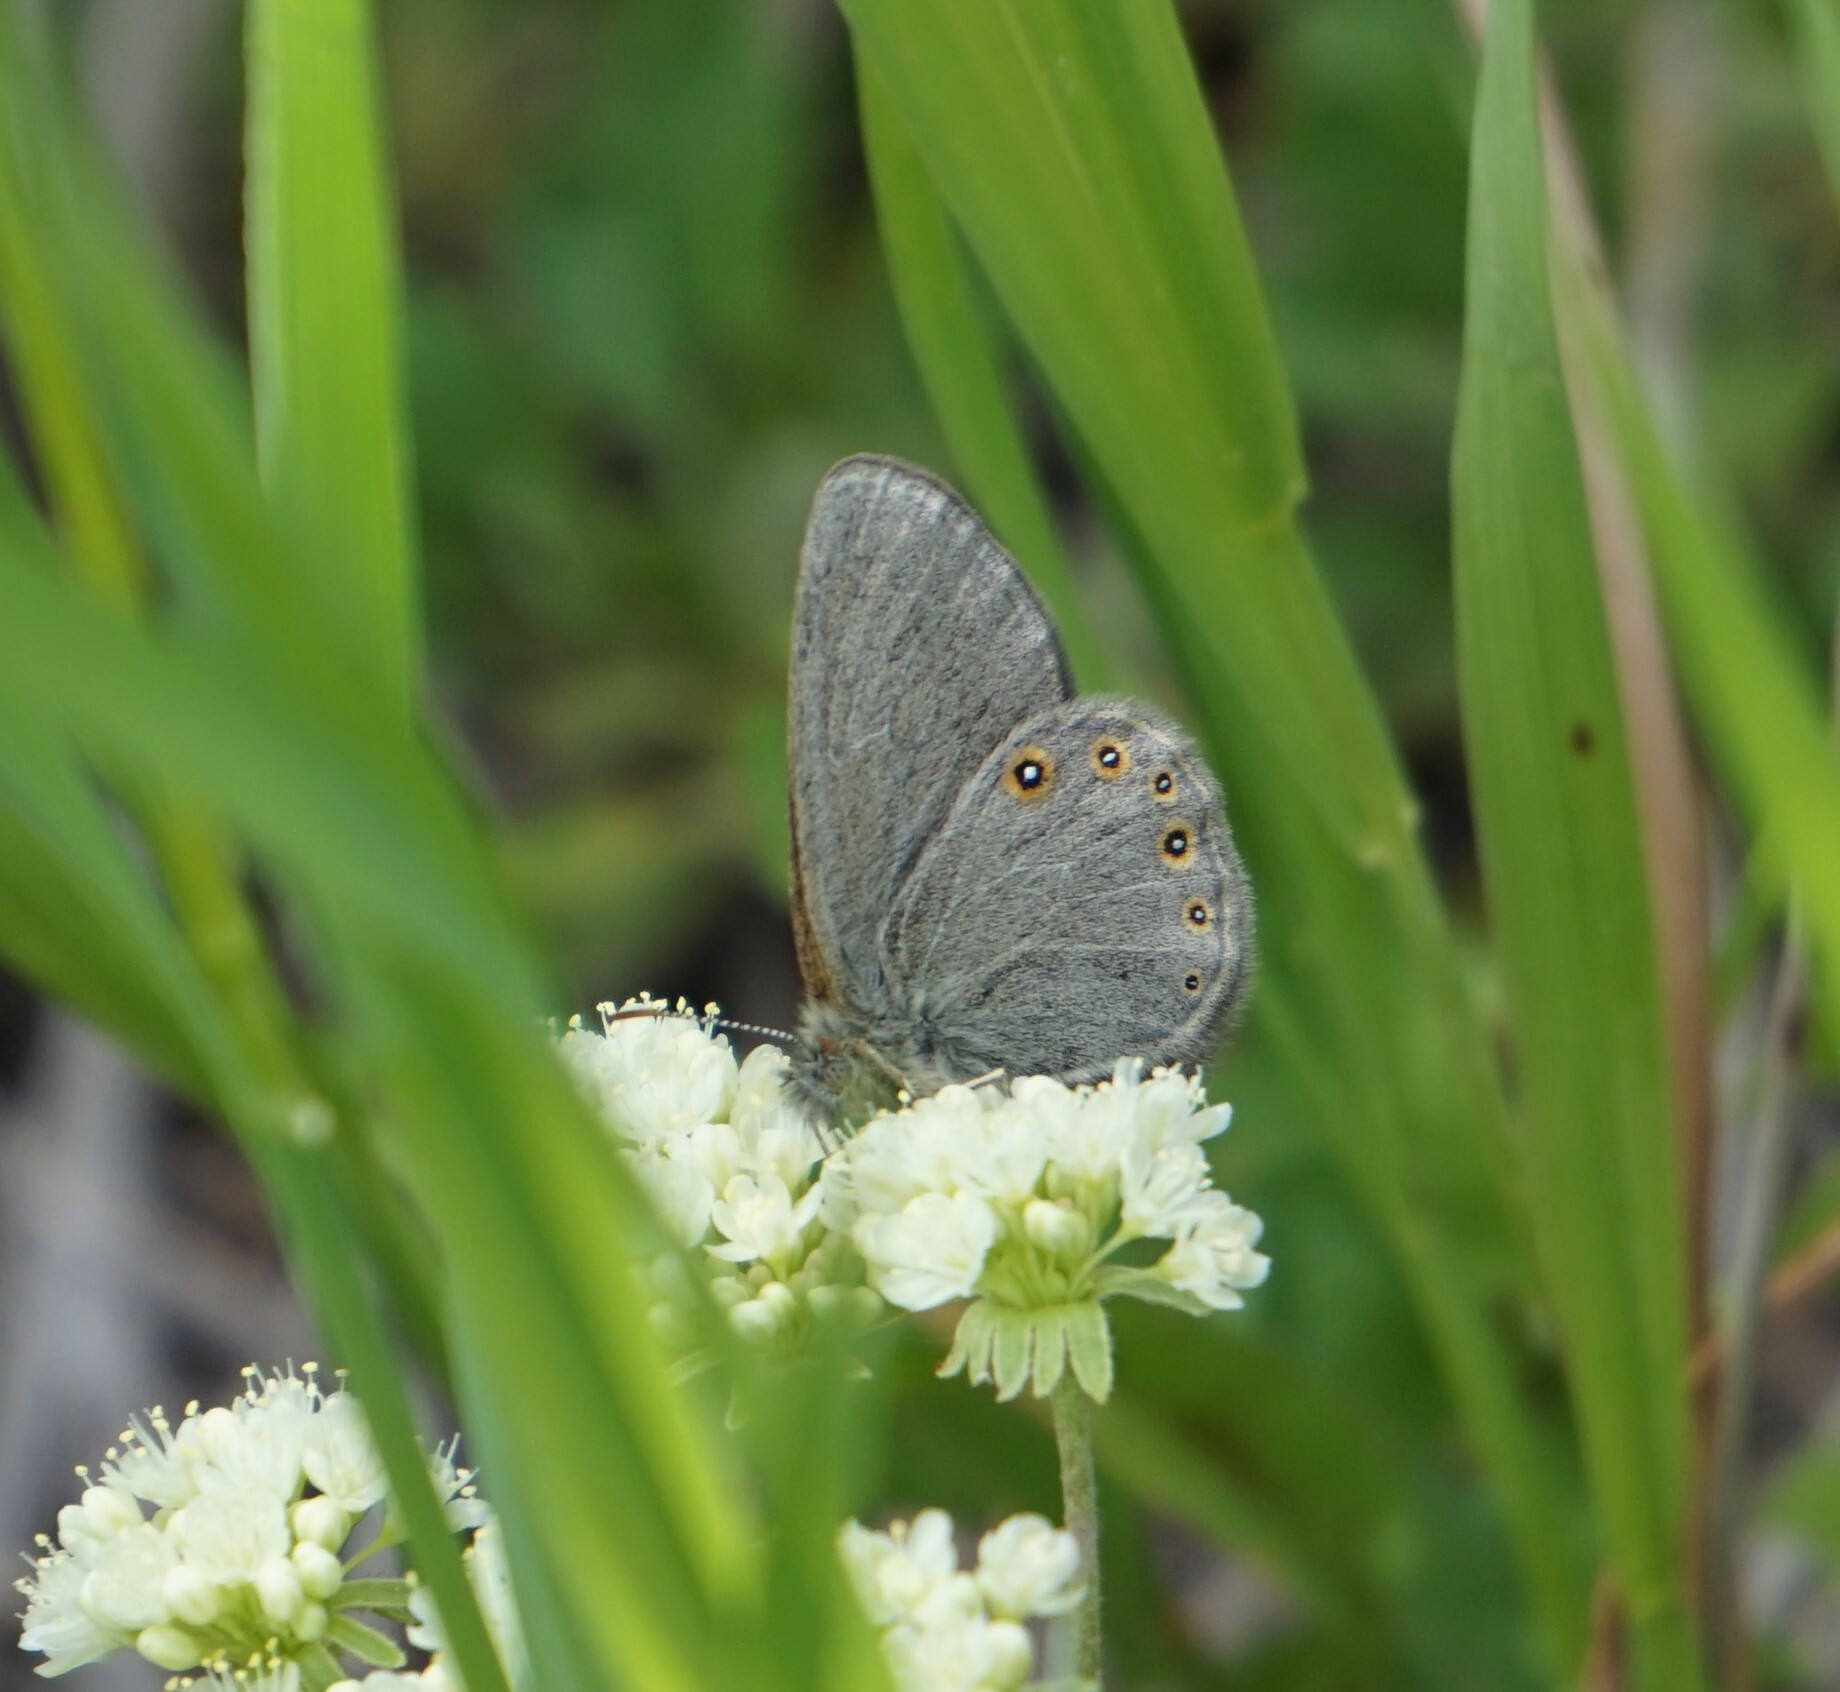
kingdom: Animalia
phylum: Arthropoda
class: Insecta
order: Lepidoptera
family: Nymphalidae
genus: Coenonympha
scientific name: Coenonympha haydeni
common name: Hayden's ringlet
